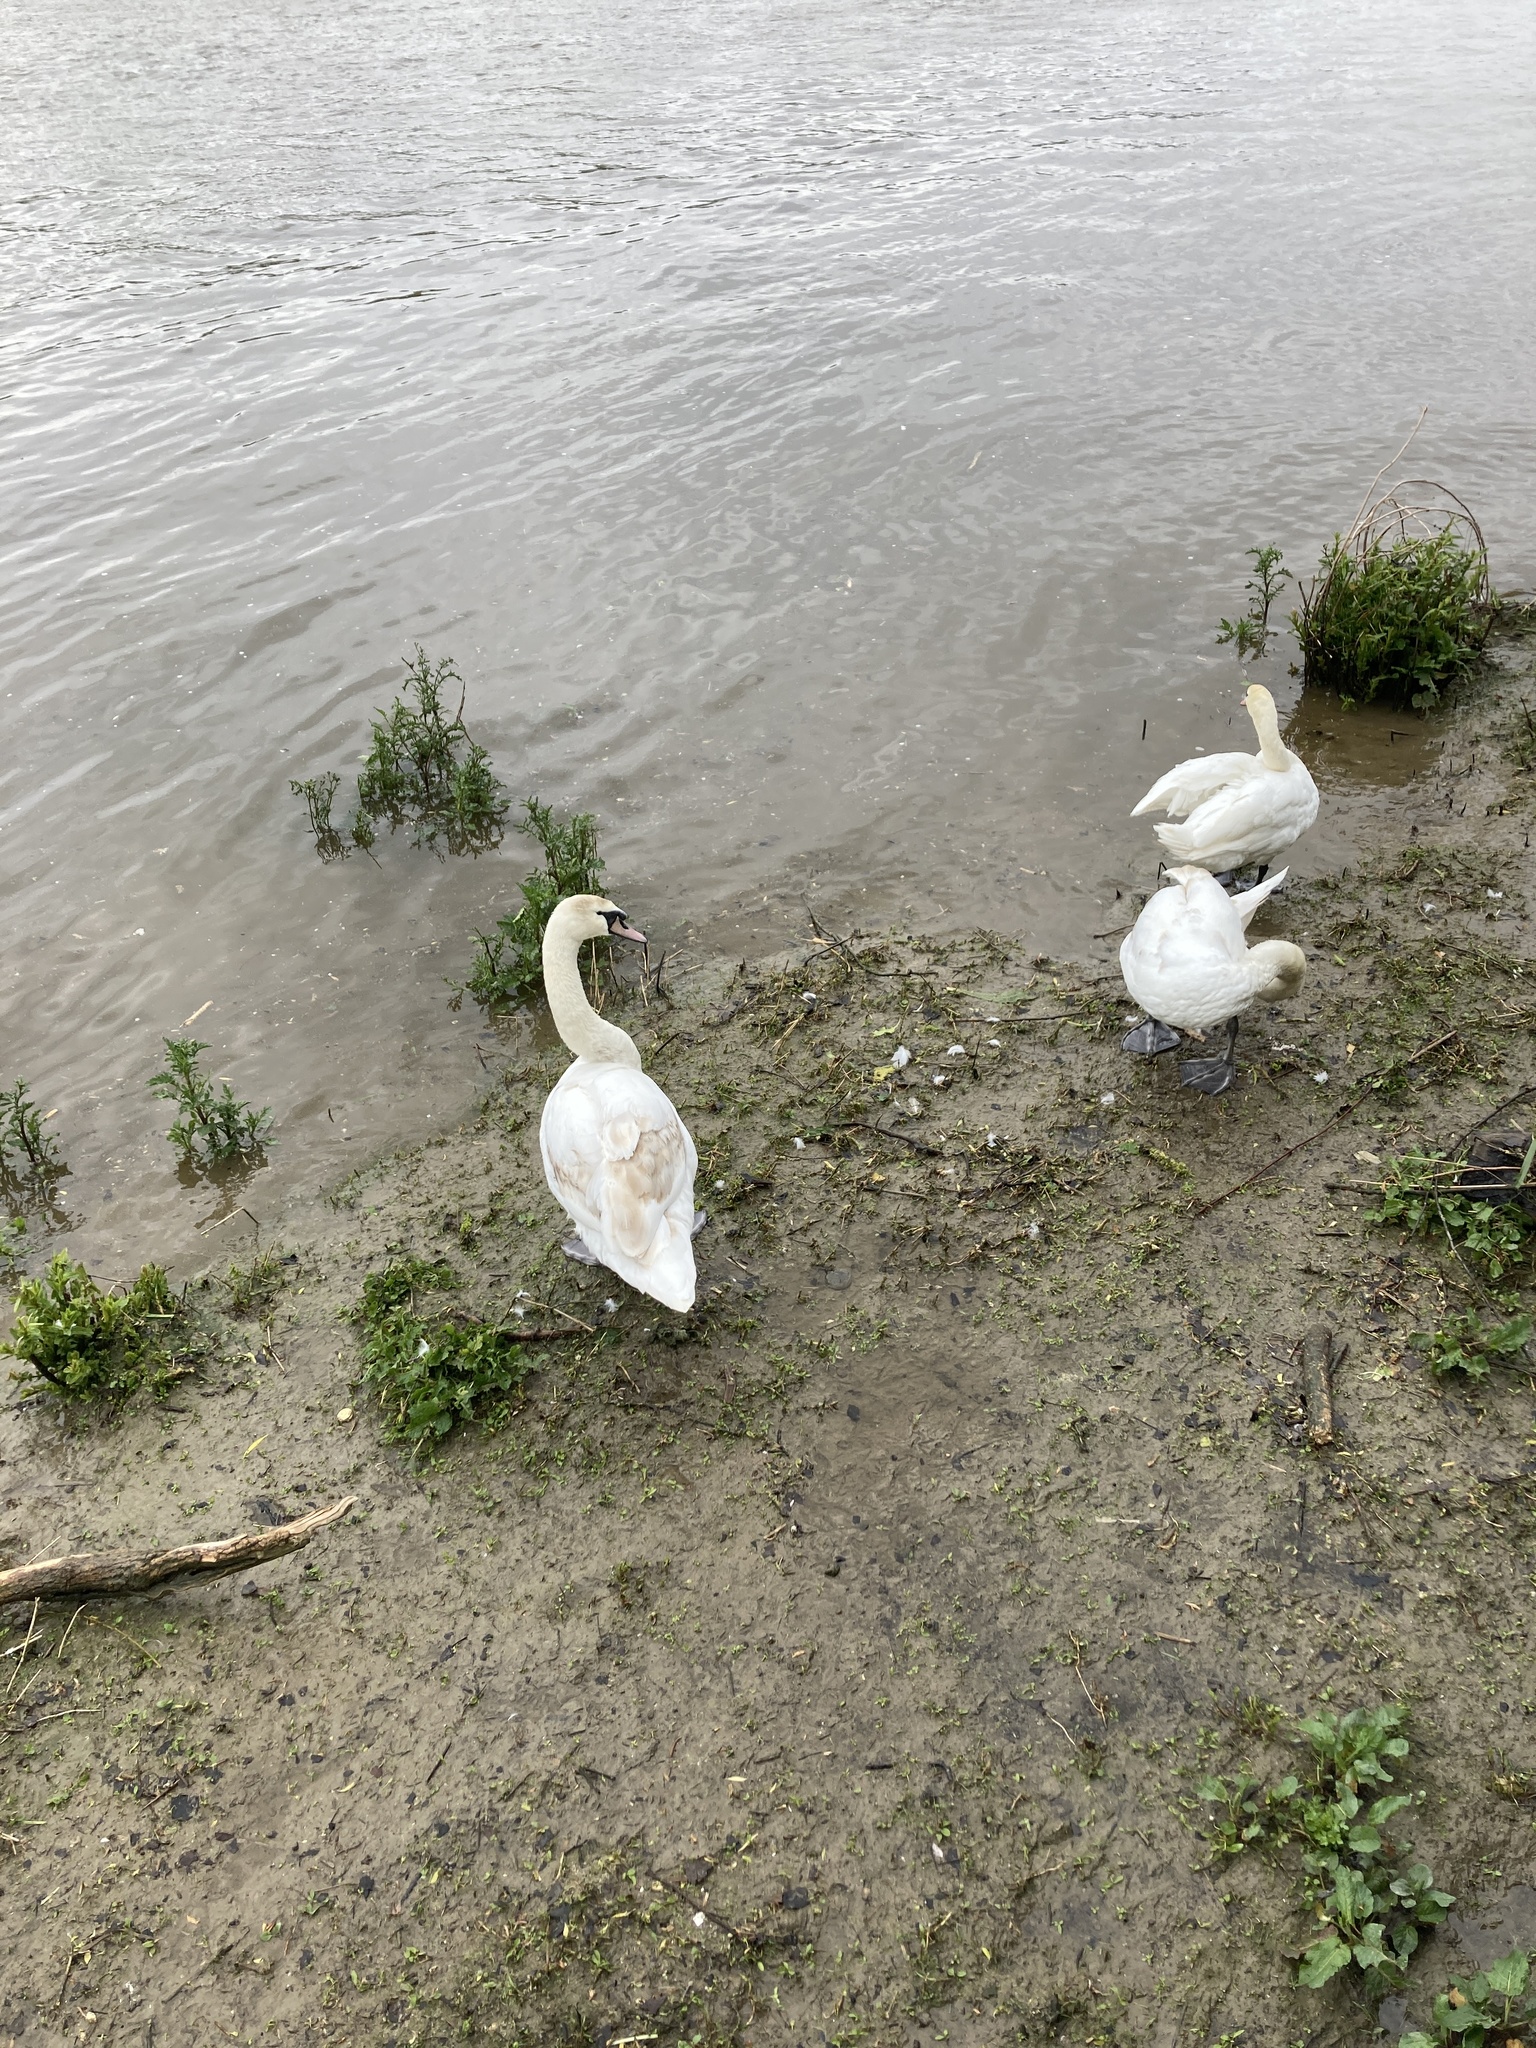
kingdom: Animalia
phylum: Chordata
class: Aves
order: Anseriformes
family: Anatidae
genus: Cygnus
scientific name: Cygnus olor
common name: Mute swan
